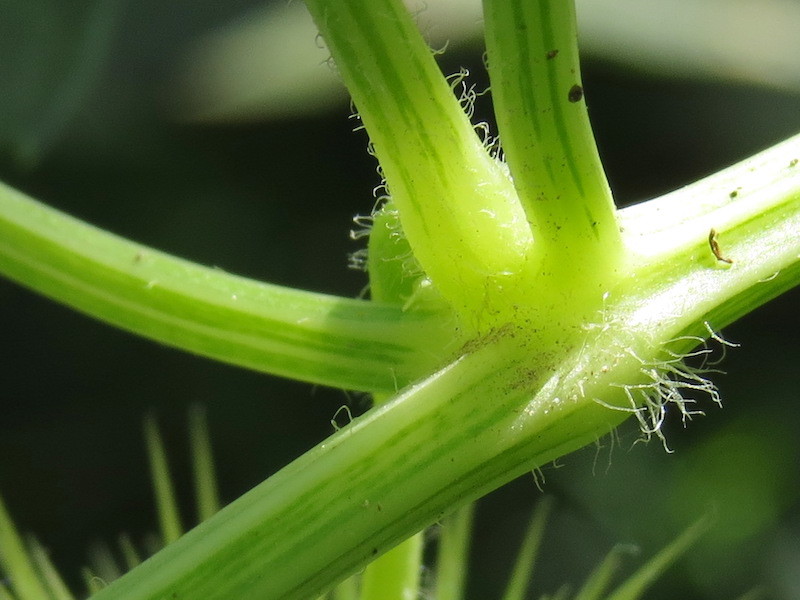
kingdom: Plantae
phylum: Tracheophyta
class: Magnoliopsida
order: Cucurbitales
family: Cucurbitaceae
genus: Echinocystis
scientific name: Echinocystis lobata
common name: Wild cucumber
